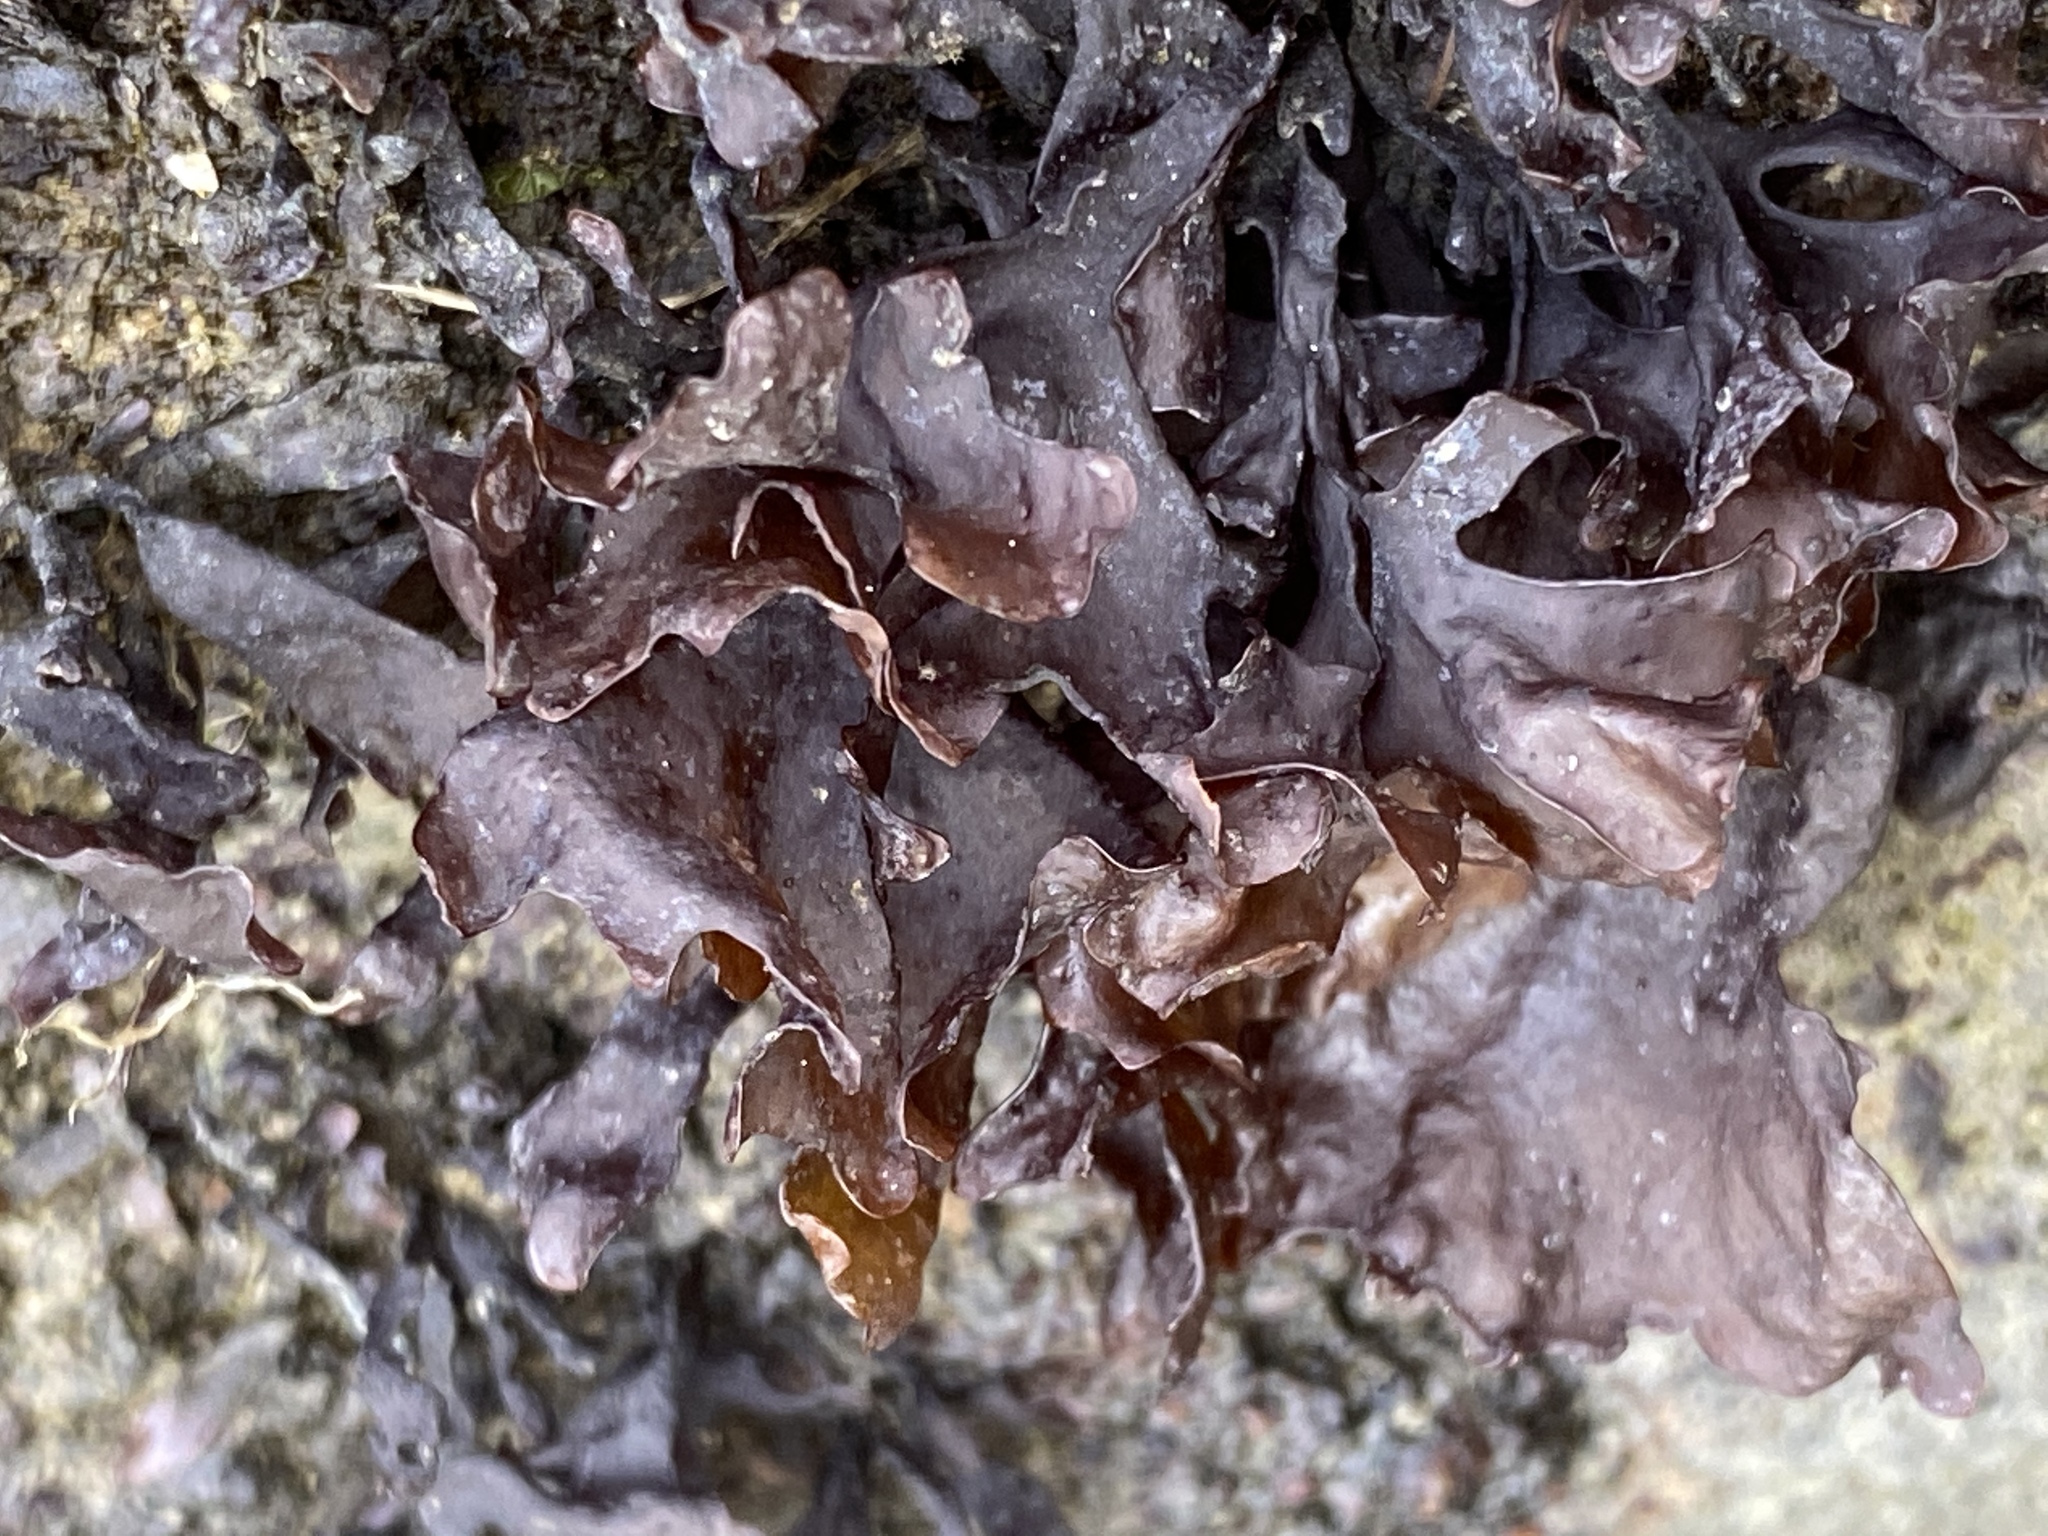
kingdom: Plantae
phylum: Rhodophyta
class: Florideophyceae
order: Gigartinales
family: Phyllophoraceae
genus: Mastocarpus
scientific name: Mastocarpus papillatus
